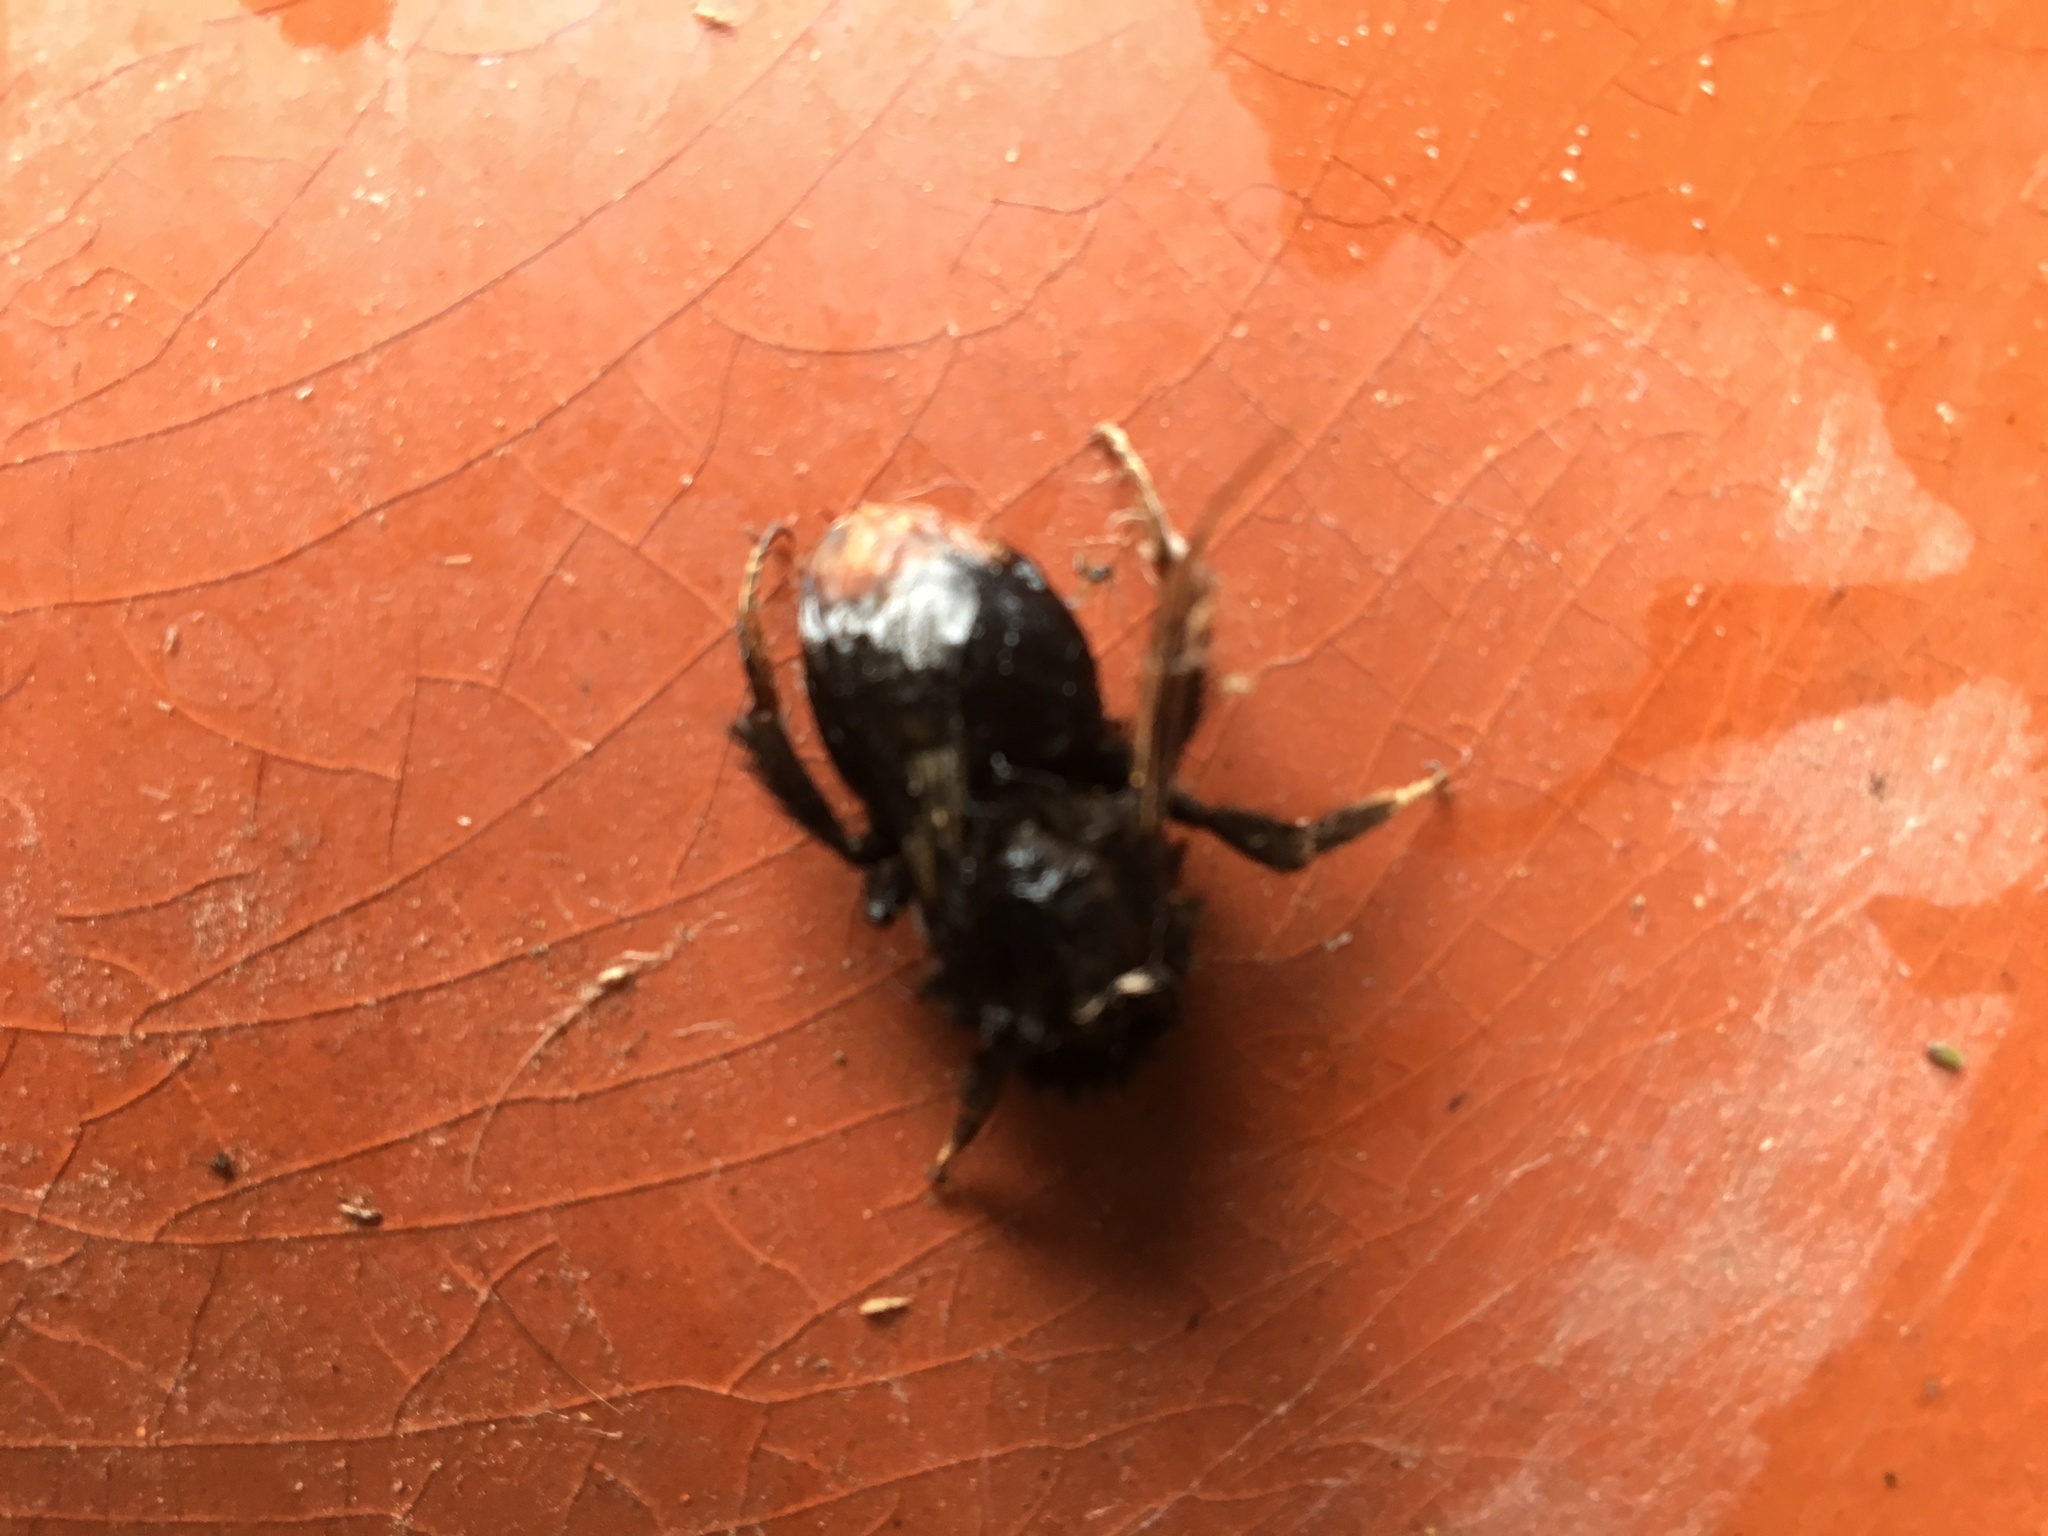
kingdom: Animalia
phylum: Arthropoda
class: Insecta
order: Hymenoptera
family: Apidae
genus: Bombus
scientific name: Bombus lapidarius
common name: Large red-tailed humble-bee
